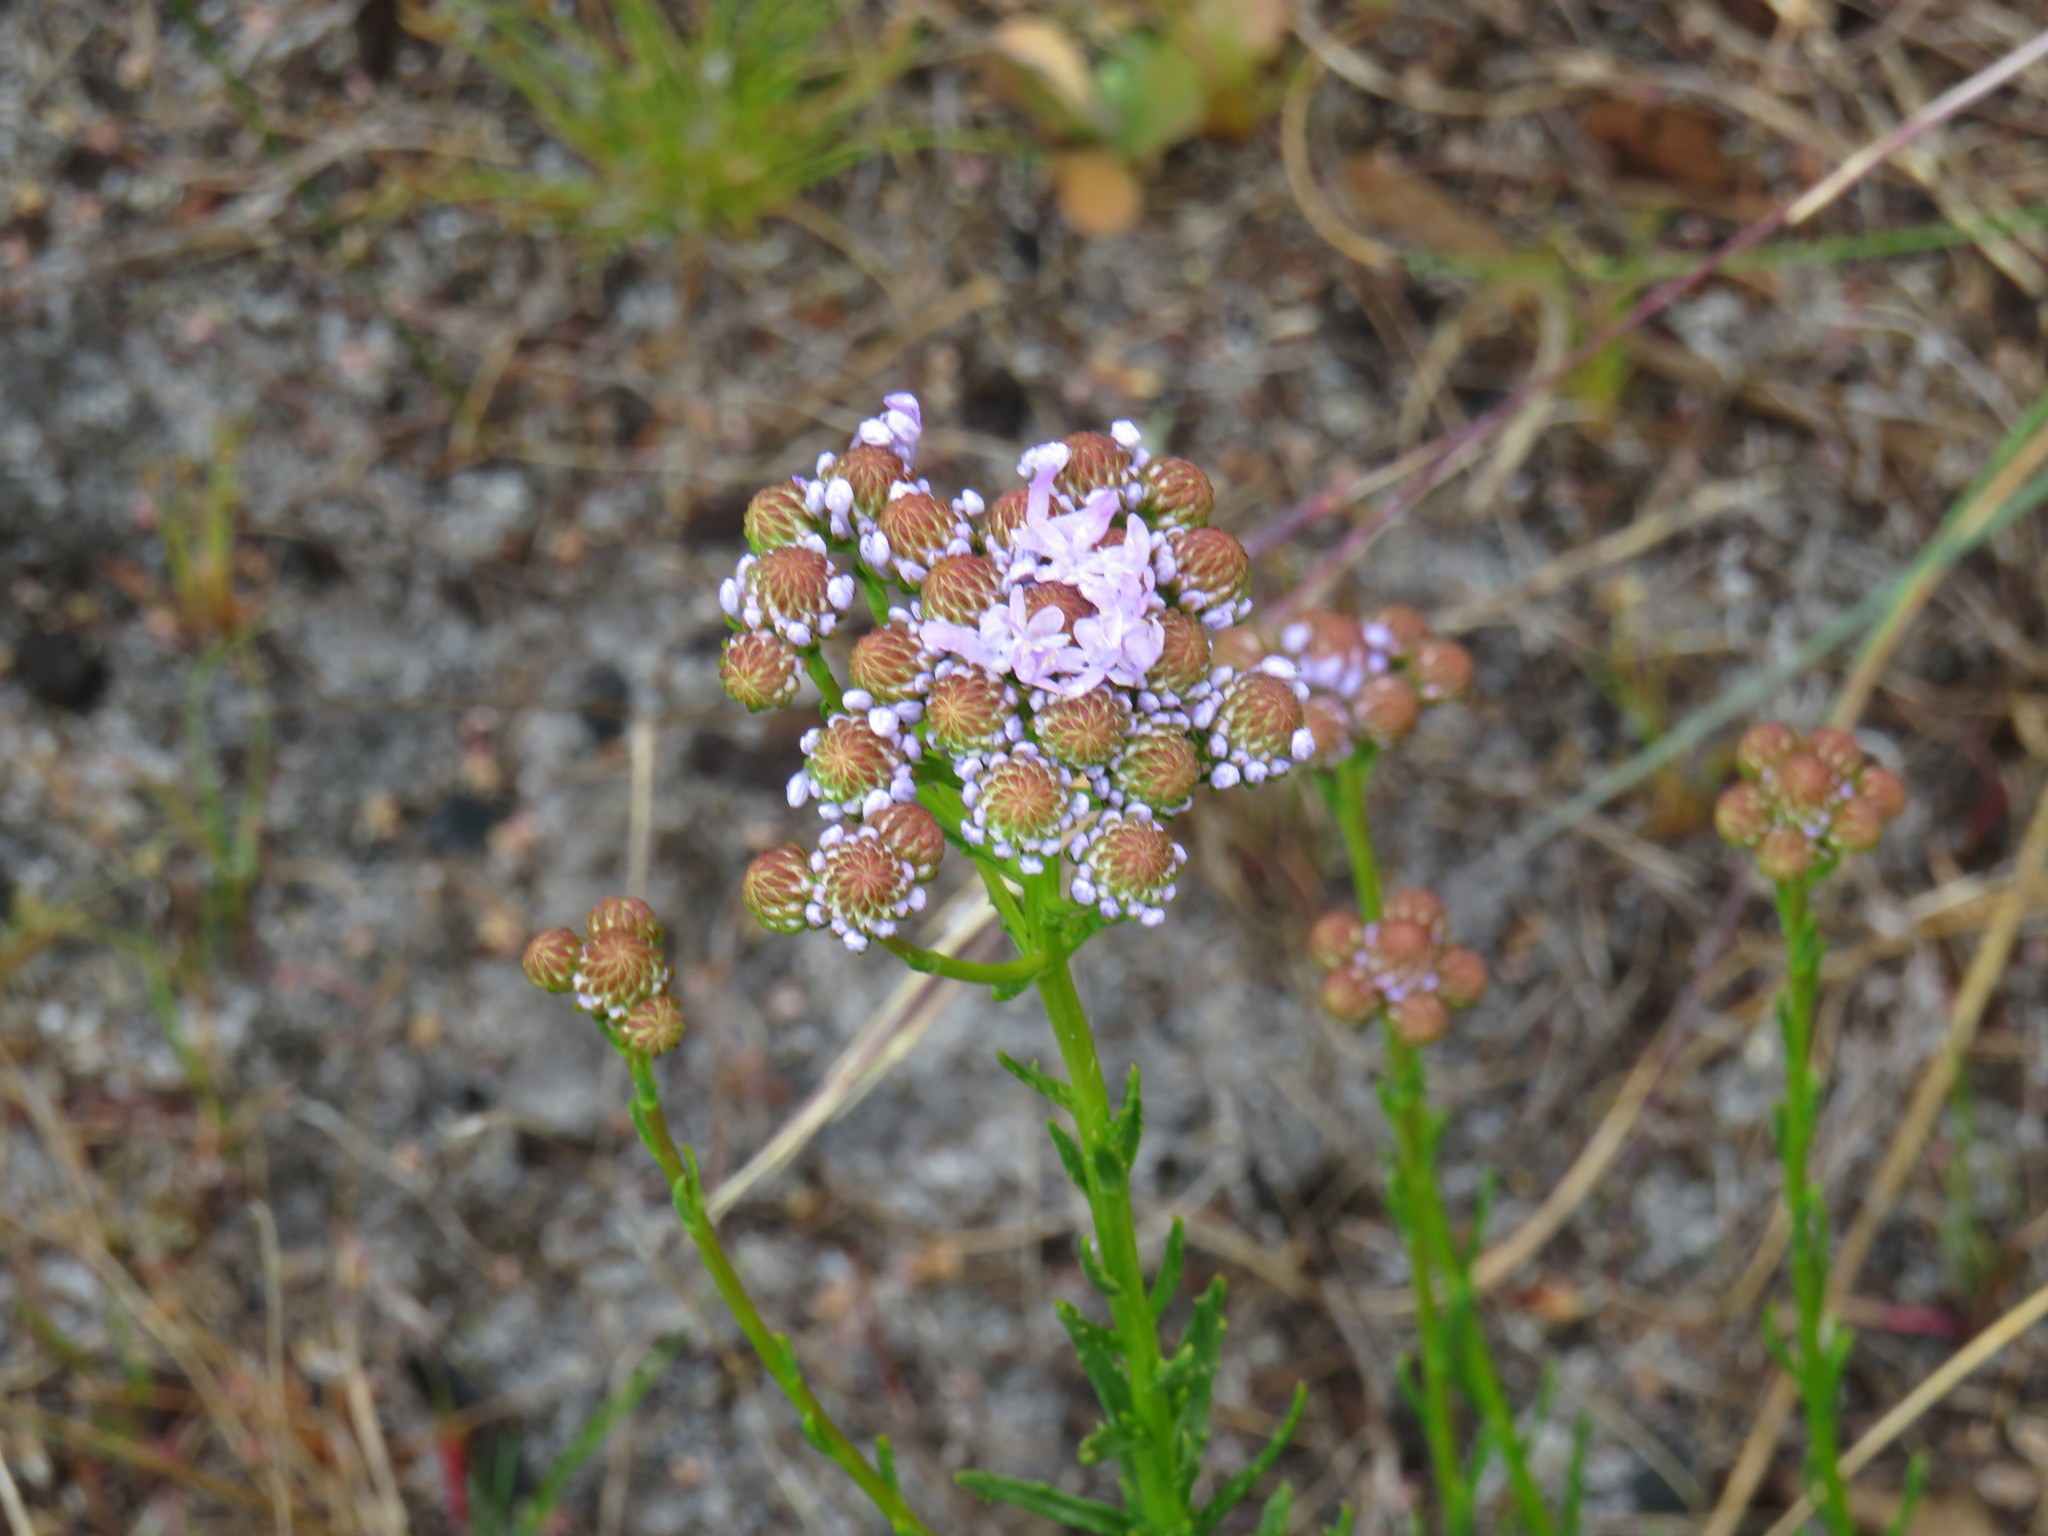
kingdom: Plantae
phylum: Tracheophyta
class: Magnoliopsida
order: Lamiales
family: Scrophulariaceae
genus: Pseudoselago
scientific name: Pseudoselago spuria
